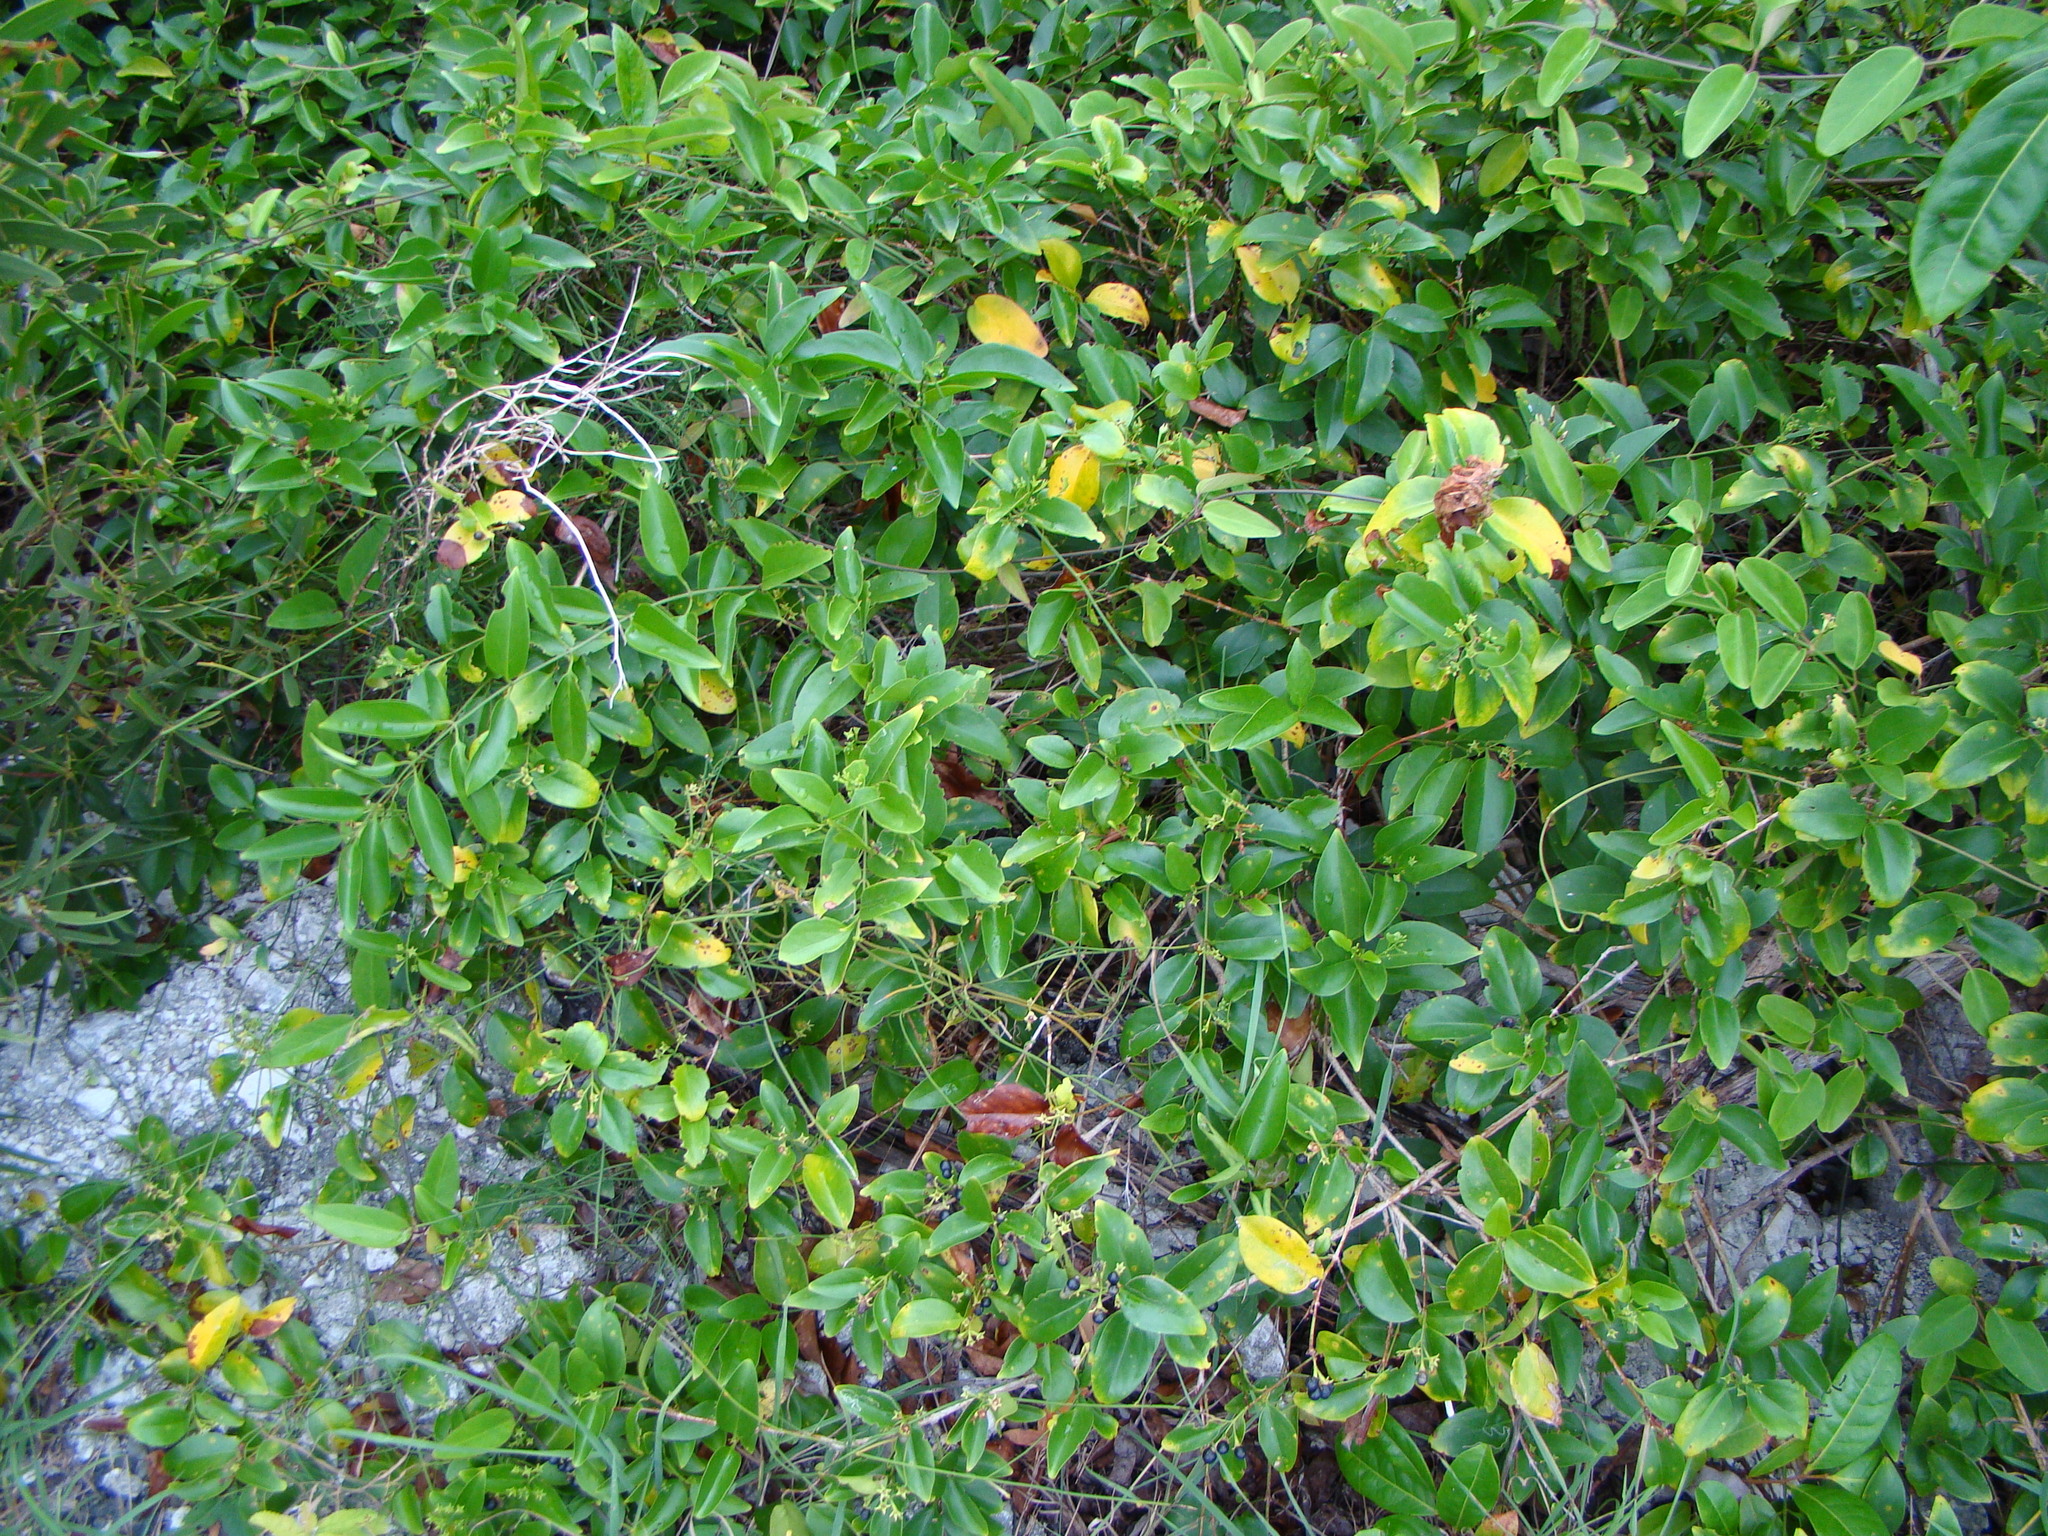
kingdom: Plantae
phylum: Tracheophyta
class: Magnoliopsida
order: Lamiales
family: Oleaceae
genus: Jasminum
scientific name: Jasminum simplicifolium
